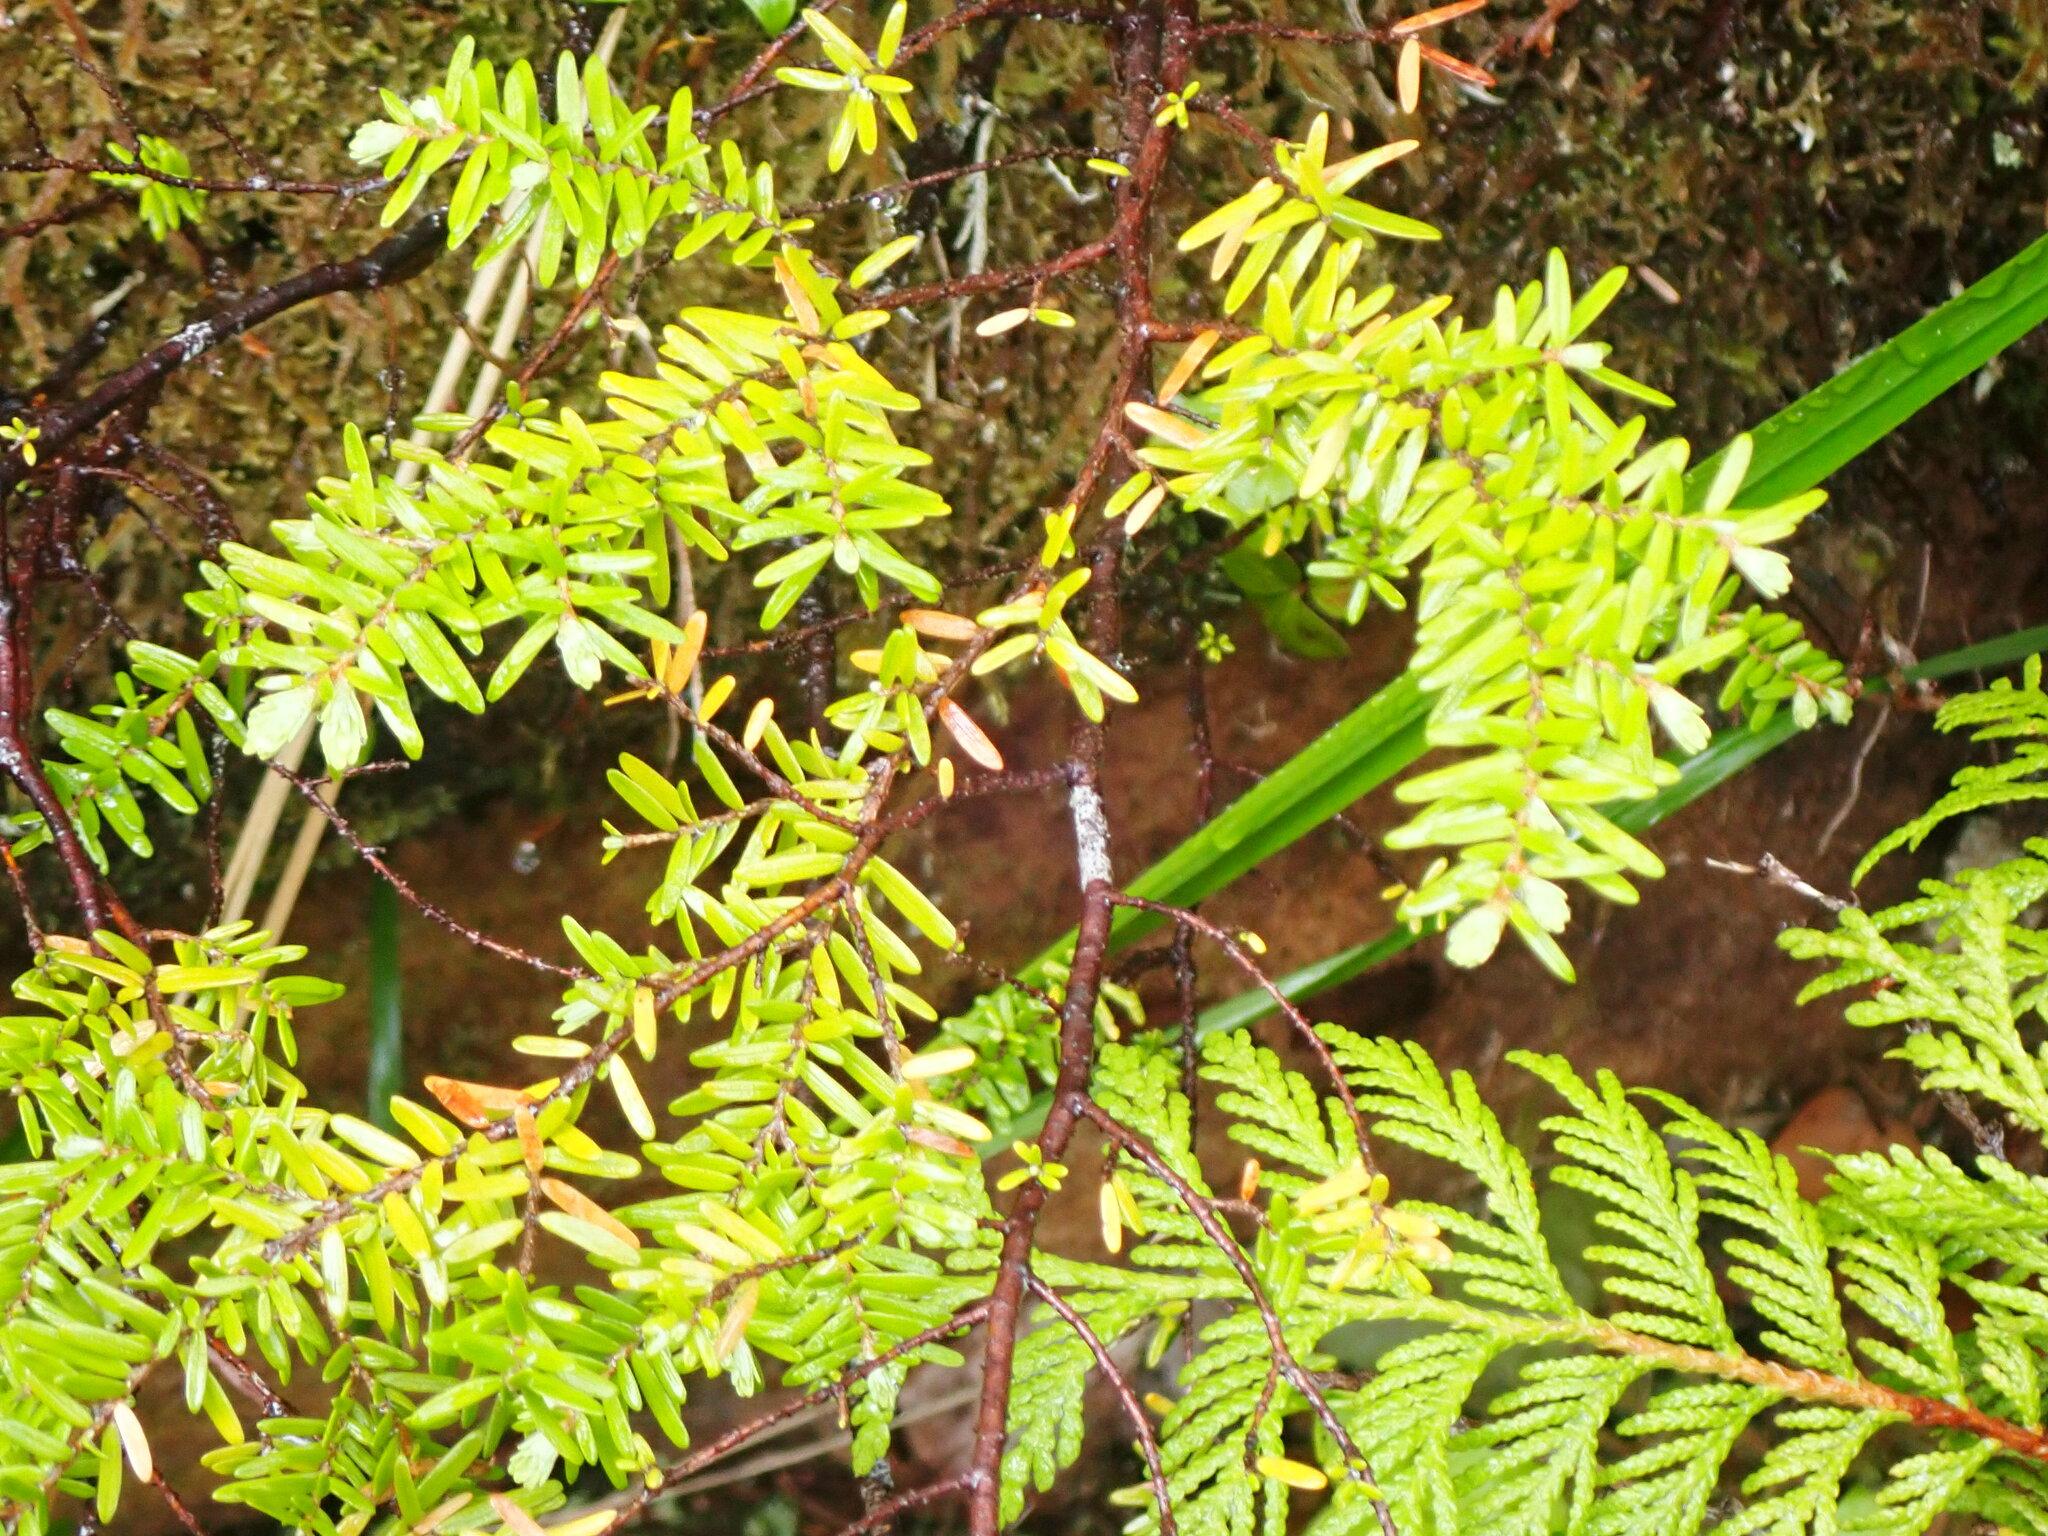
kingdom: Plantae
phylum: Tracheophyta
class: Pinopsida
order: Pinales
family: Pinaceae
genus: Tsuga
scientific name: Tsuga heterophylla
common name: Western hemlock
